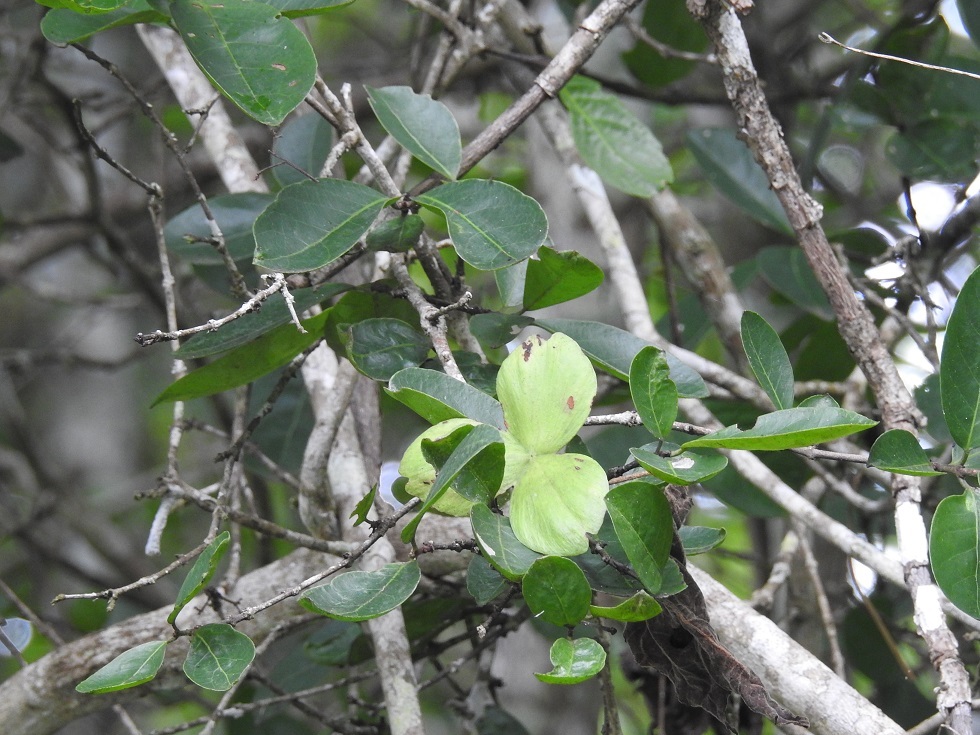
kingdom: Plantae
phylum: Tracheophyta
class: Magnoliopsida
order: Celastrales
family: Celastraceae
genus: Semialarium
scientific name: Semialarium mexicanum
